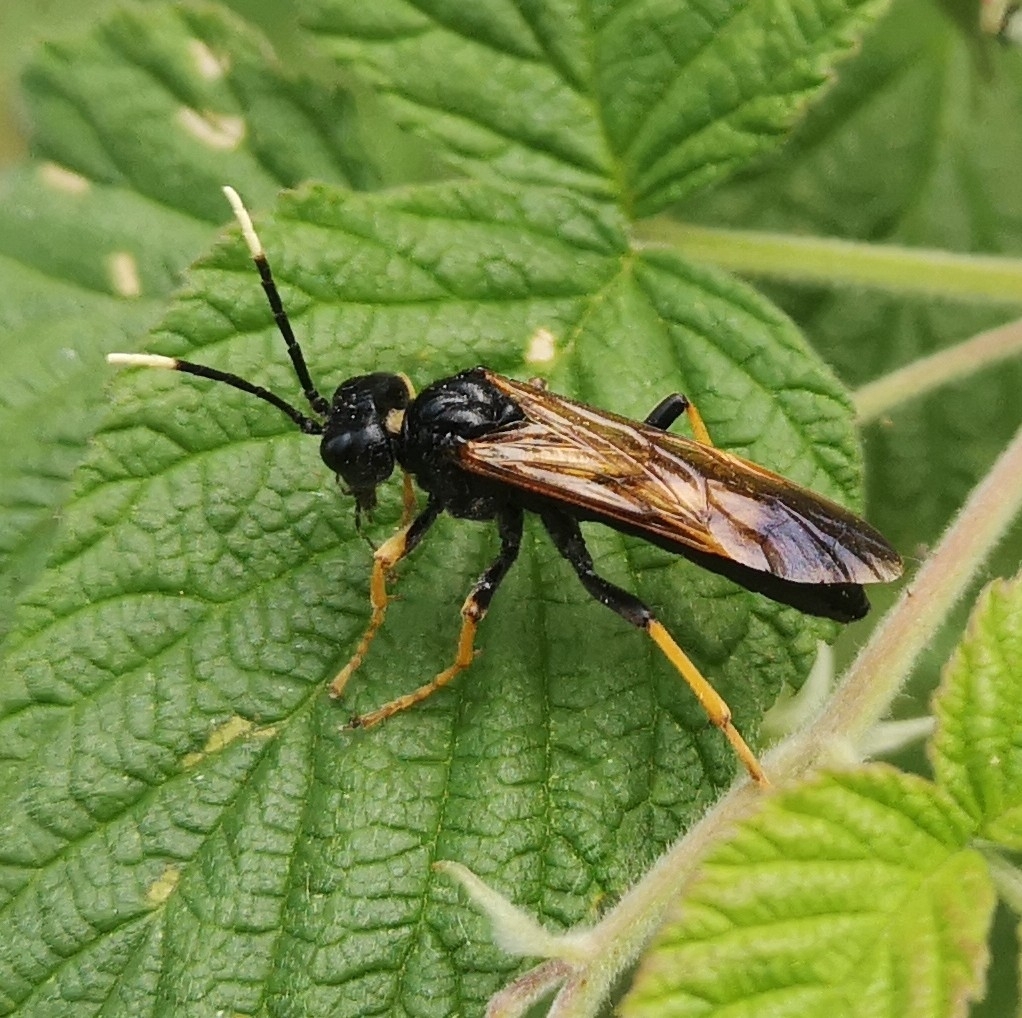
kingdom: Animalia
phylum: Arthropoda
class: Insecta
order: Hymenoptera
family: Tenthredinidae
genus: Tenthredo
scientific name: Tenthredo crassa
